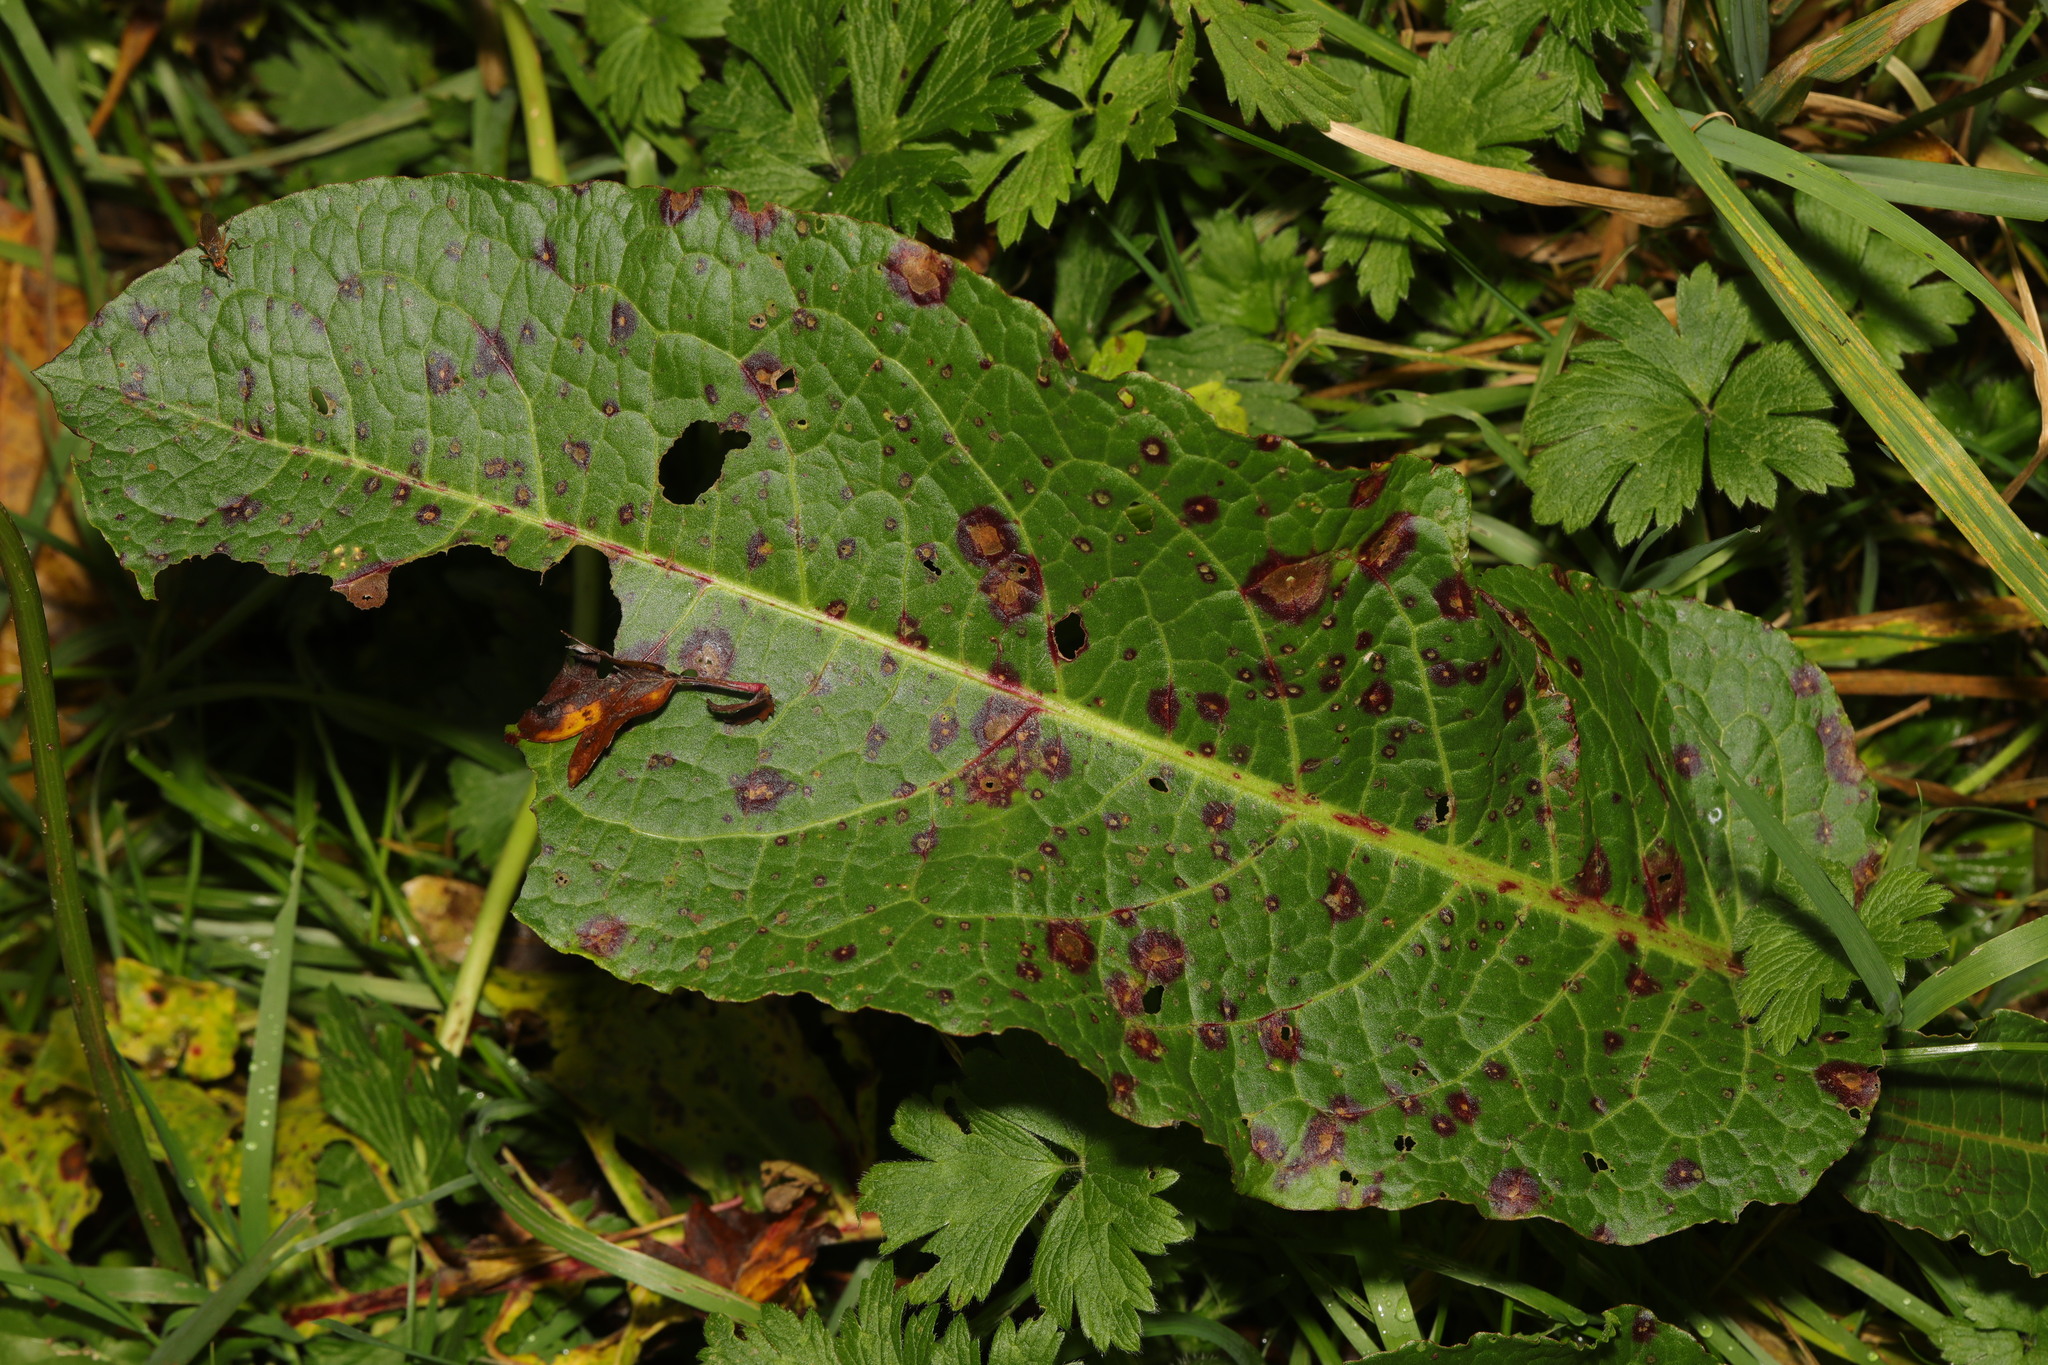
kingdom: Plantae
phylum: Tracheophyta
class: Magnoliopsida
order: Caryophyllales
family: Polygonaceae
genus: Rumex
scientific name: Rumex obtusifolius
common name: Bitter dock
